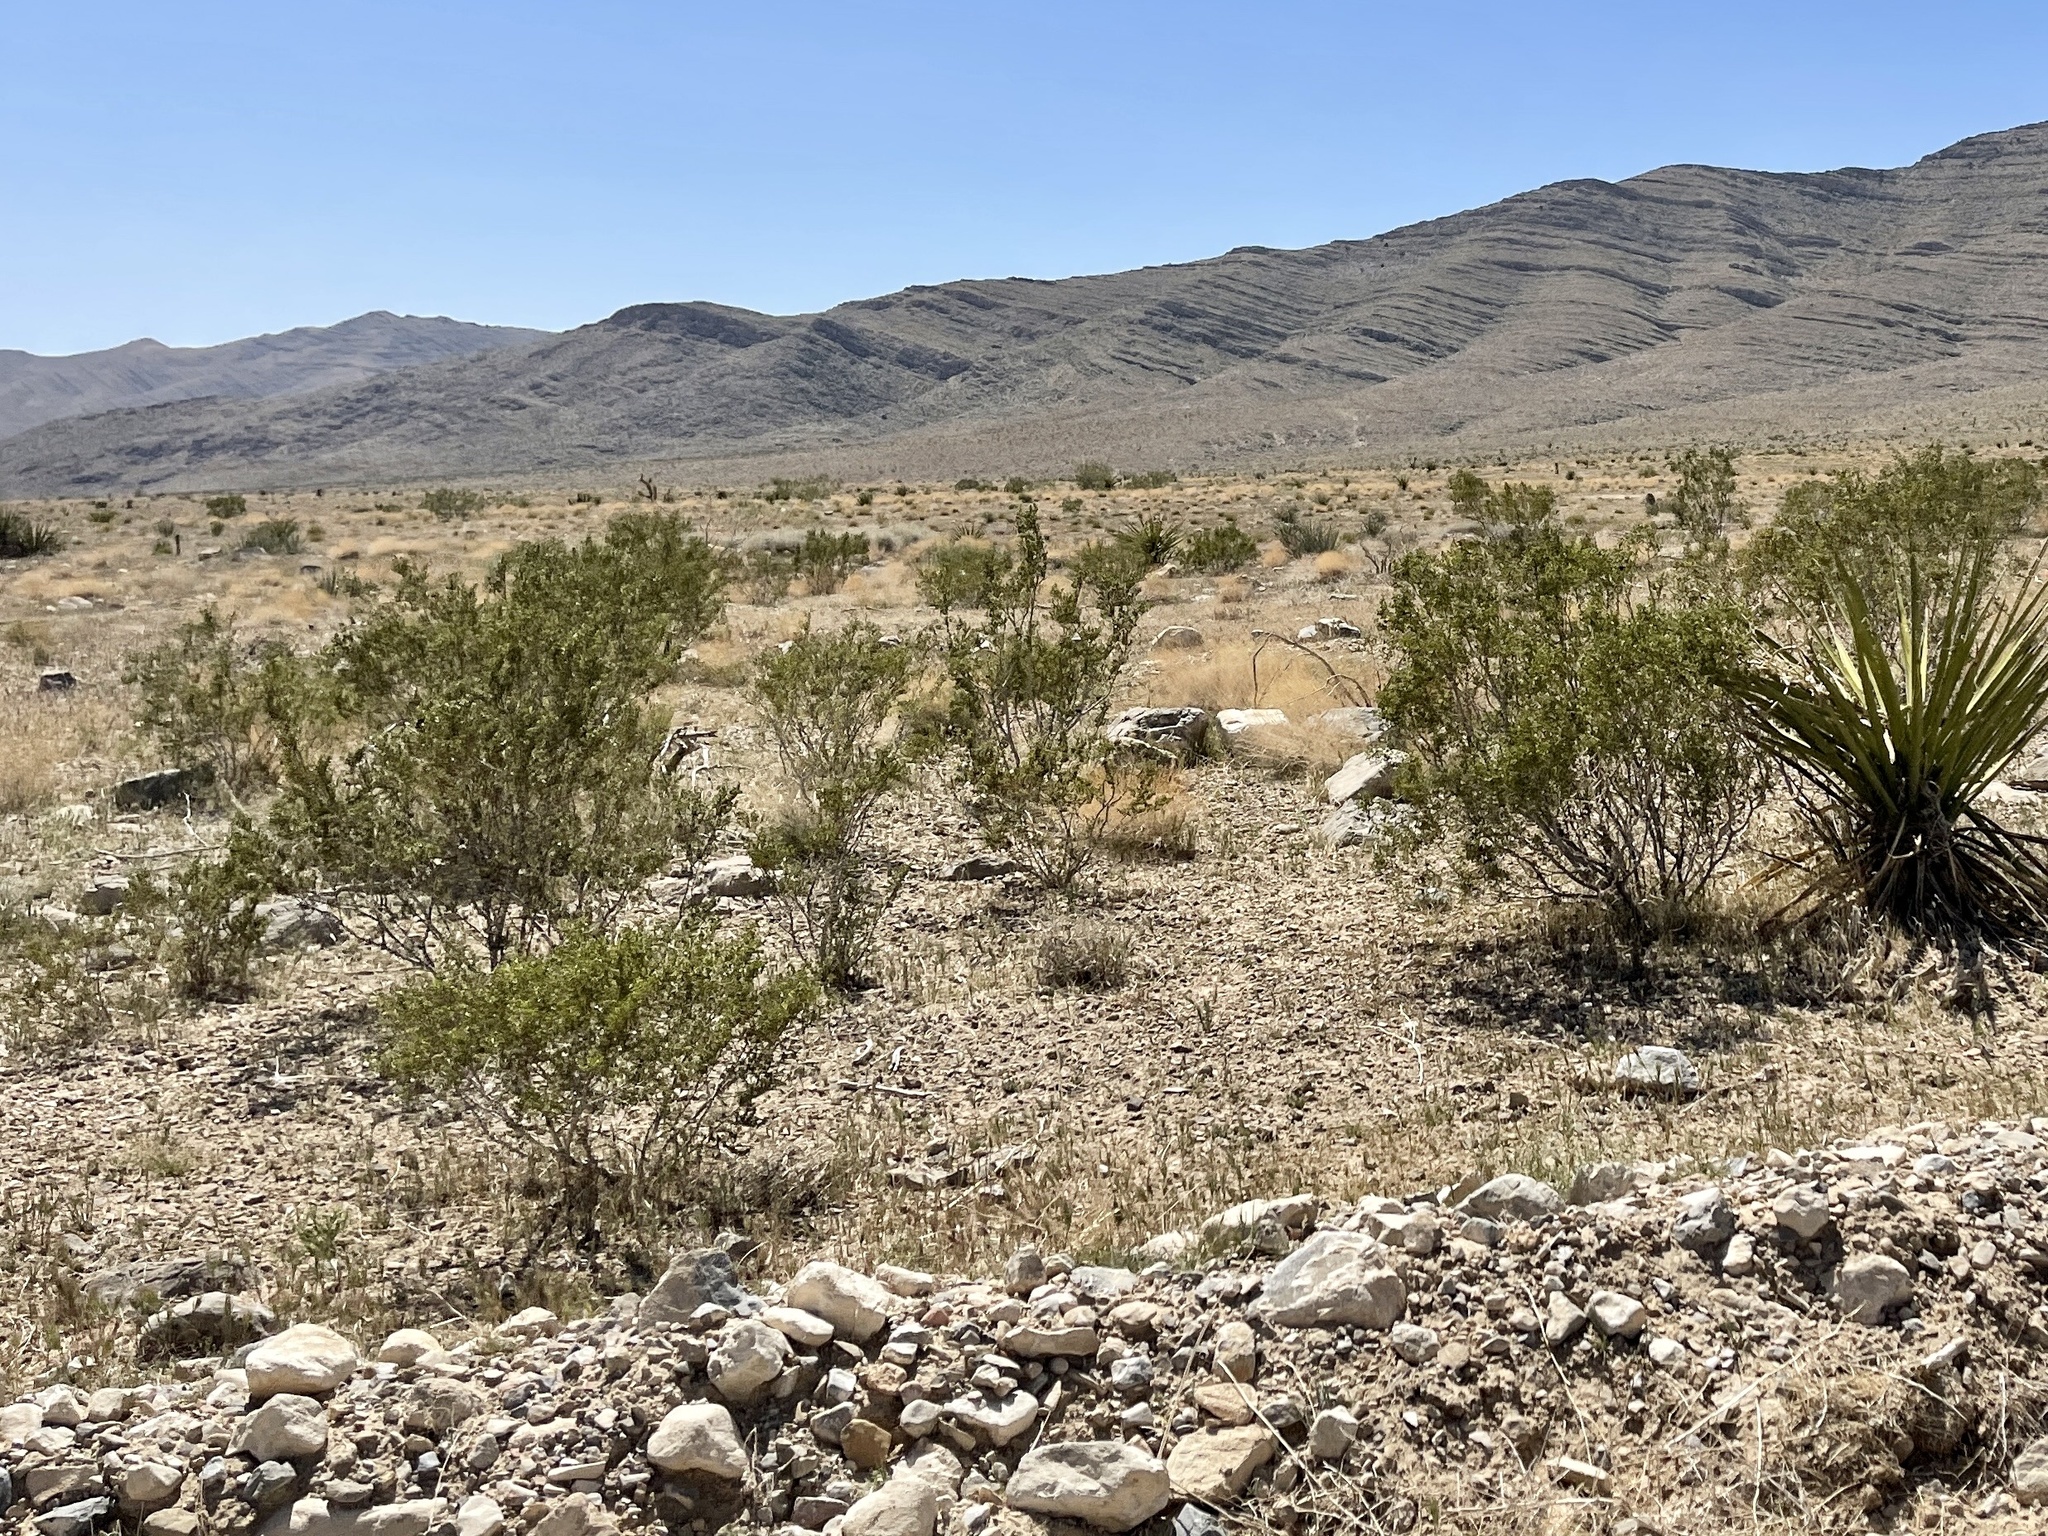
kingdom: Plantae
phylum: Tracheophyta
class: Magnoliopsida
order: Zygophyllales
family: Zygophyllaceae
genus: Larrea
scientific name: Larrea tridentata
